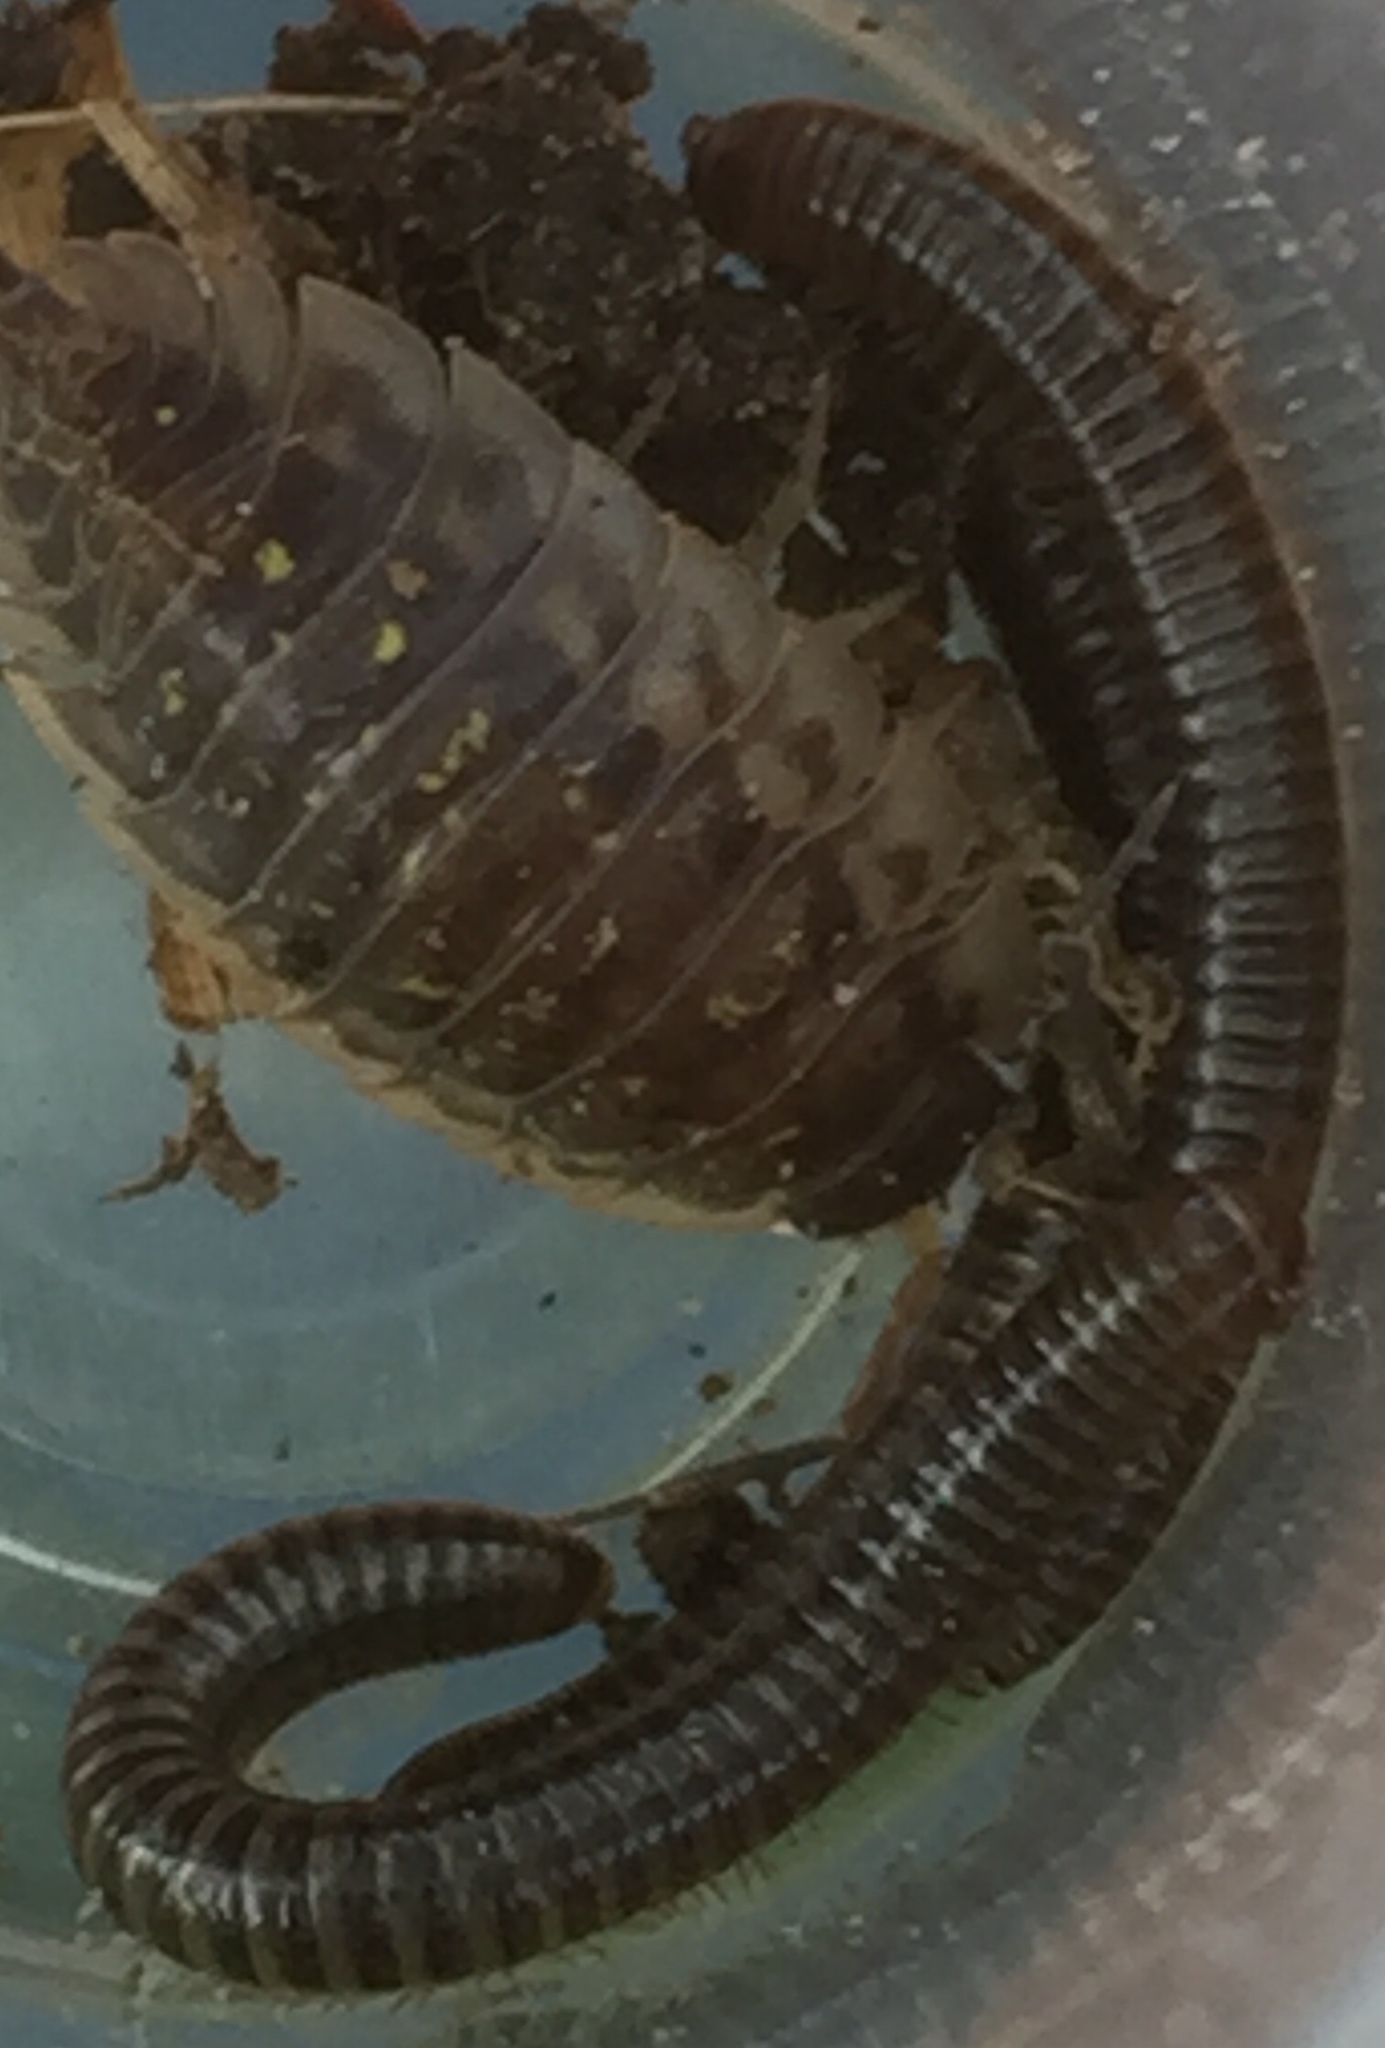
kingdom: Animalia
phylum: Arthropoda
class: Diplopoda
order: Julida
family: Julidae
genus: Cylindroiulus
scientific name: Cylindroiulus caeruleocinctus
